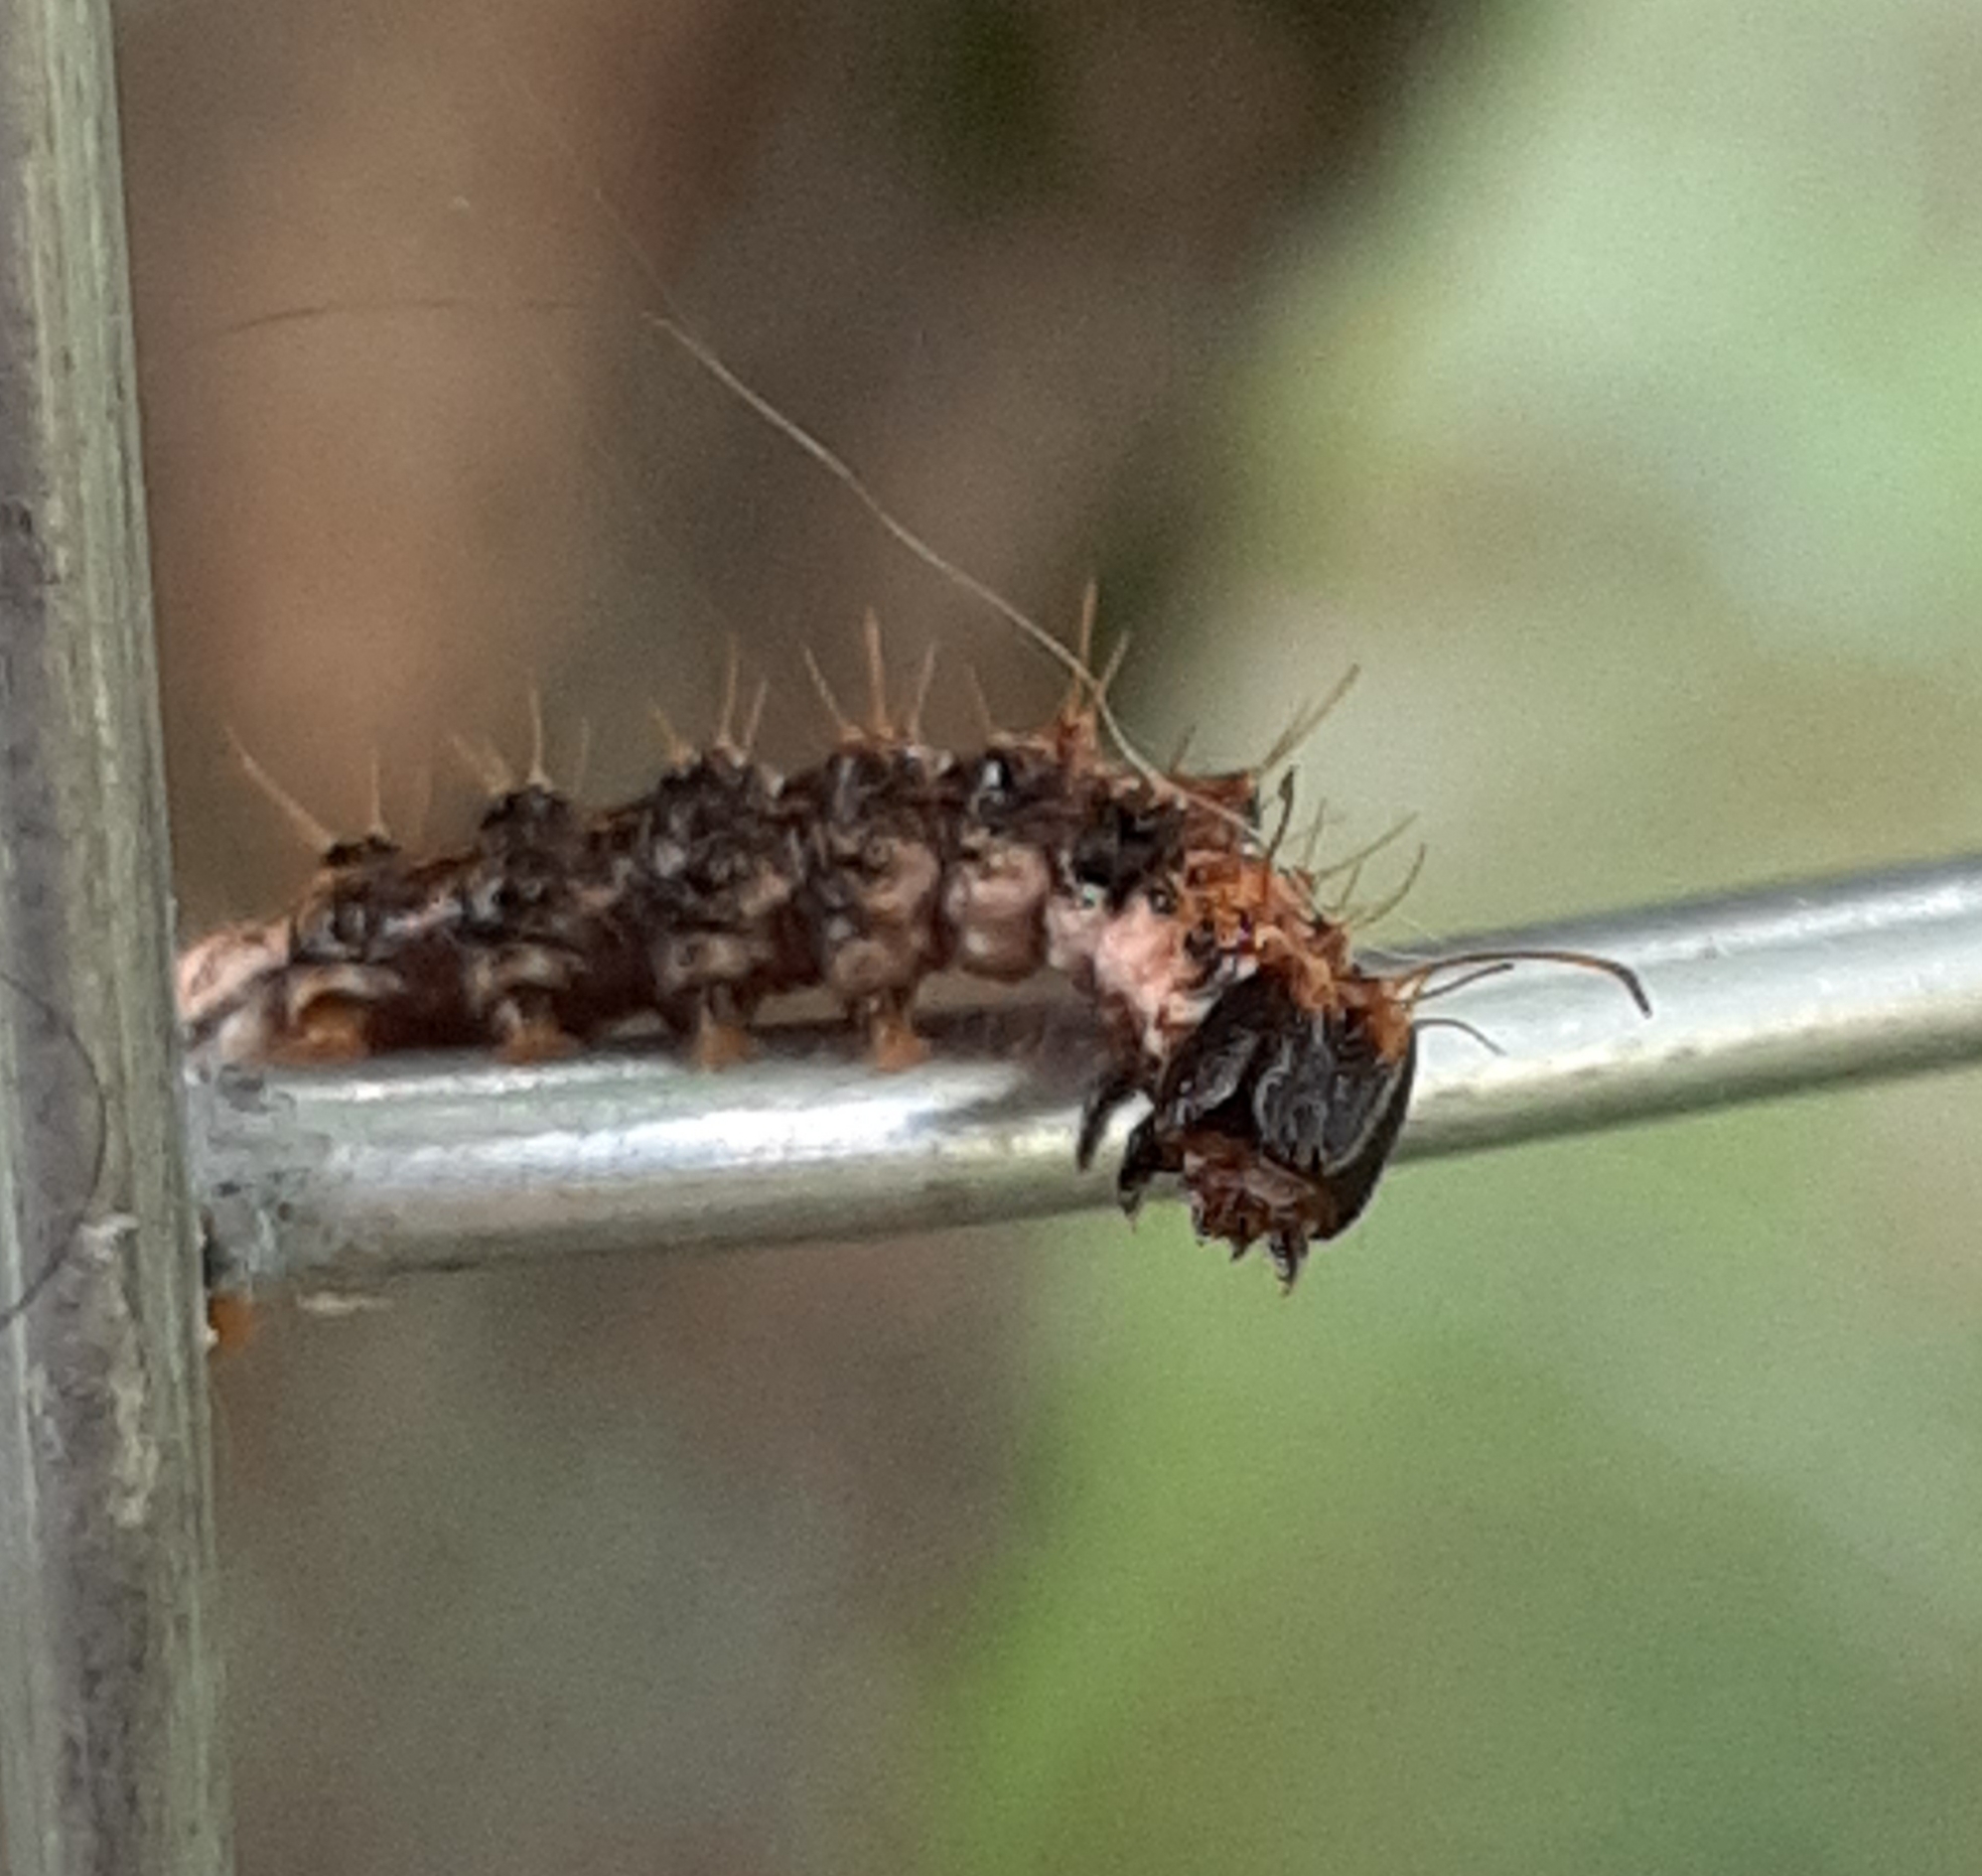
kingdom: Animalia
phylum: Arthropoda
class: Insecta
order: Lepidoptera
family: Noctuidae
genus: Acronicta
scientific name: Acronicta funeralis
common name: Funerary dagger
